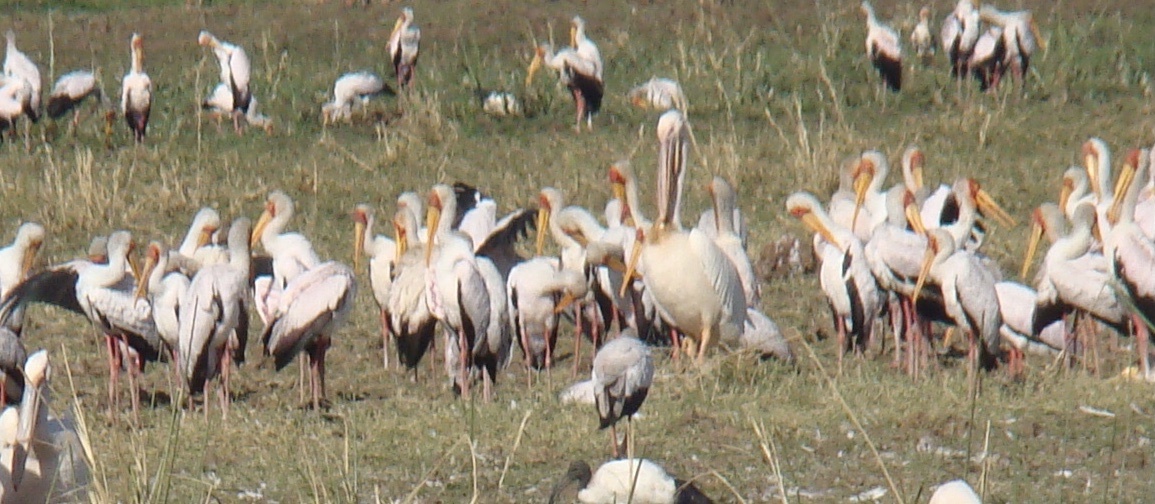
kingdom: Animalia
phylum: Chordata
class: Aves
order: Ciconiiformes
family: Ciconiidae
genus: Mycteria
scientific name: Mycteria ibis
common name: Yellow-billed stork
